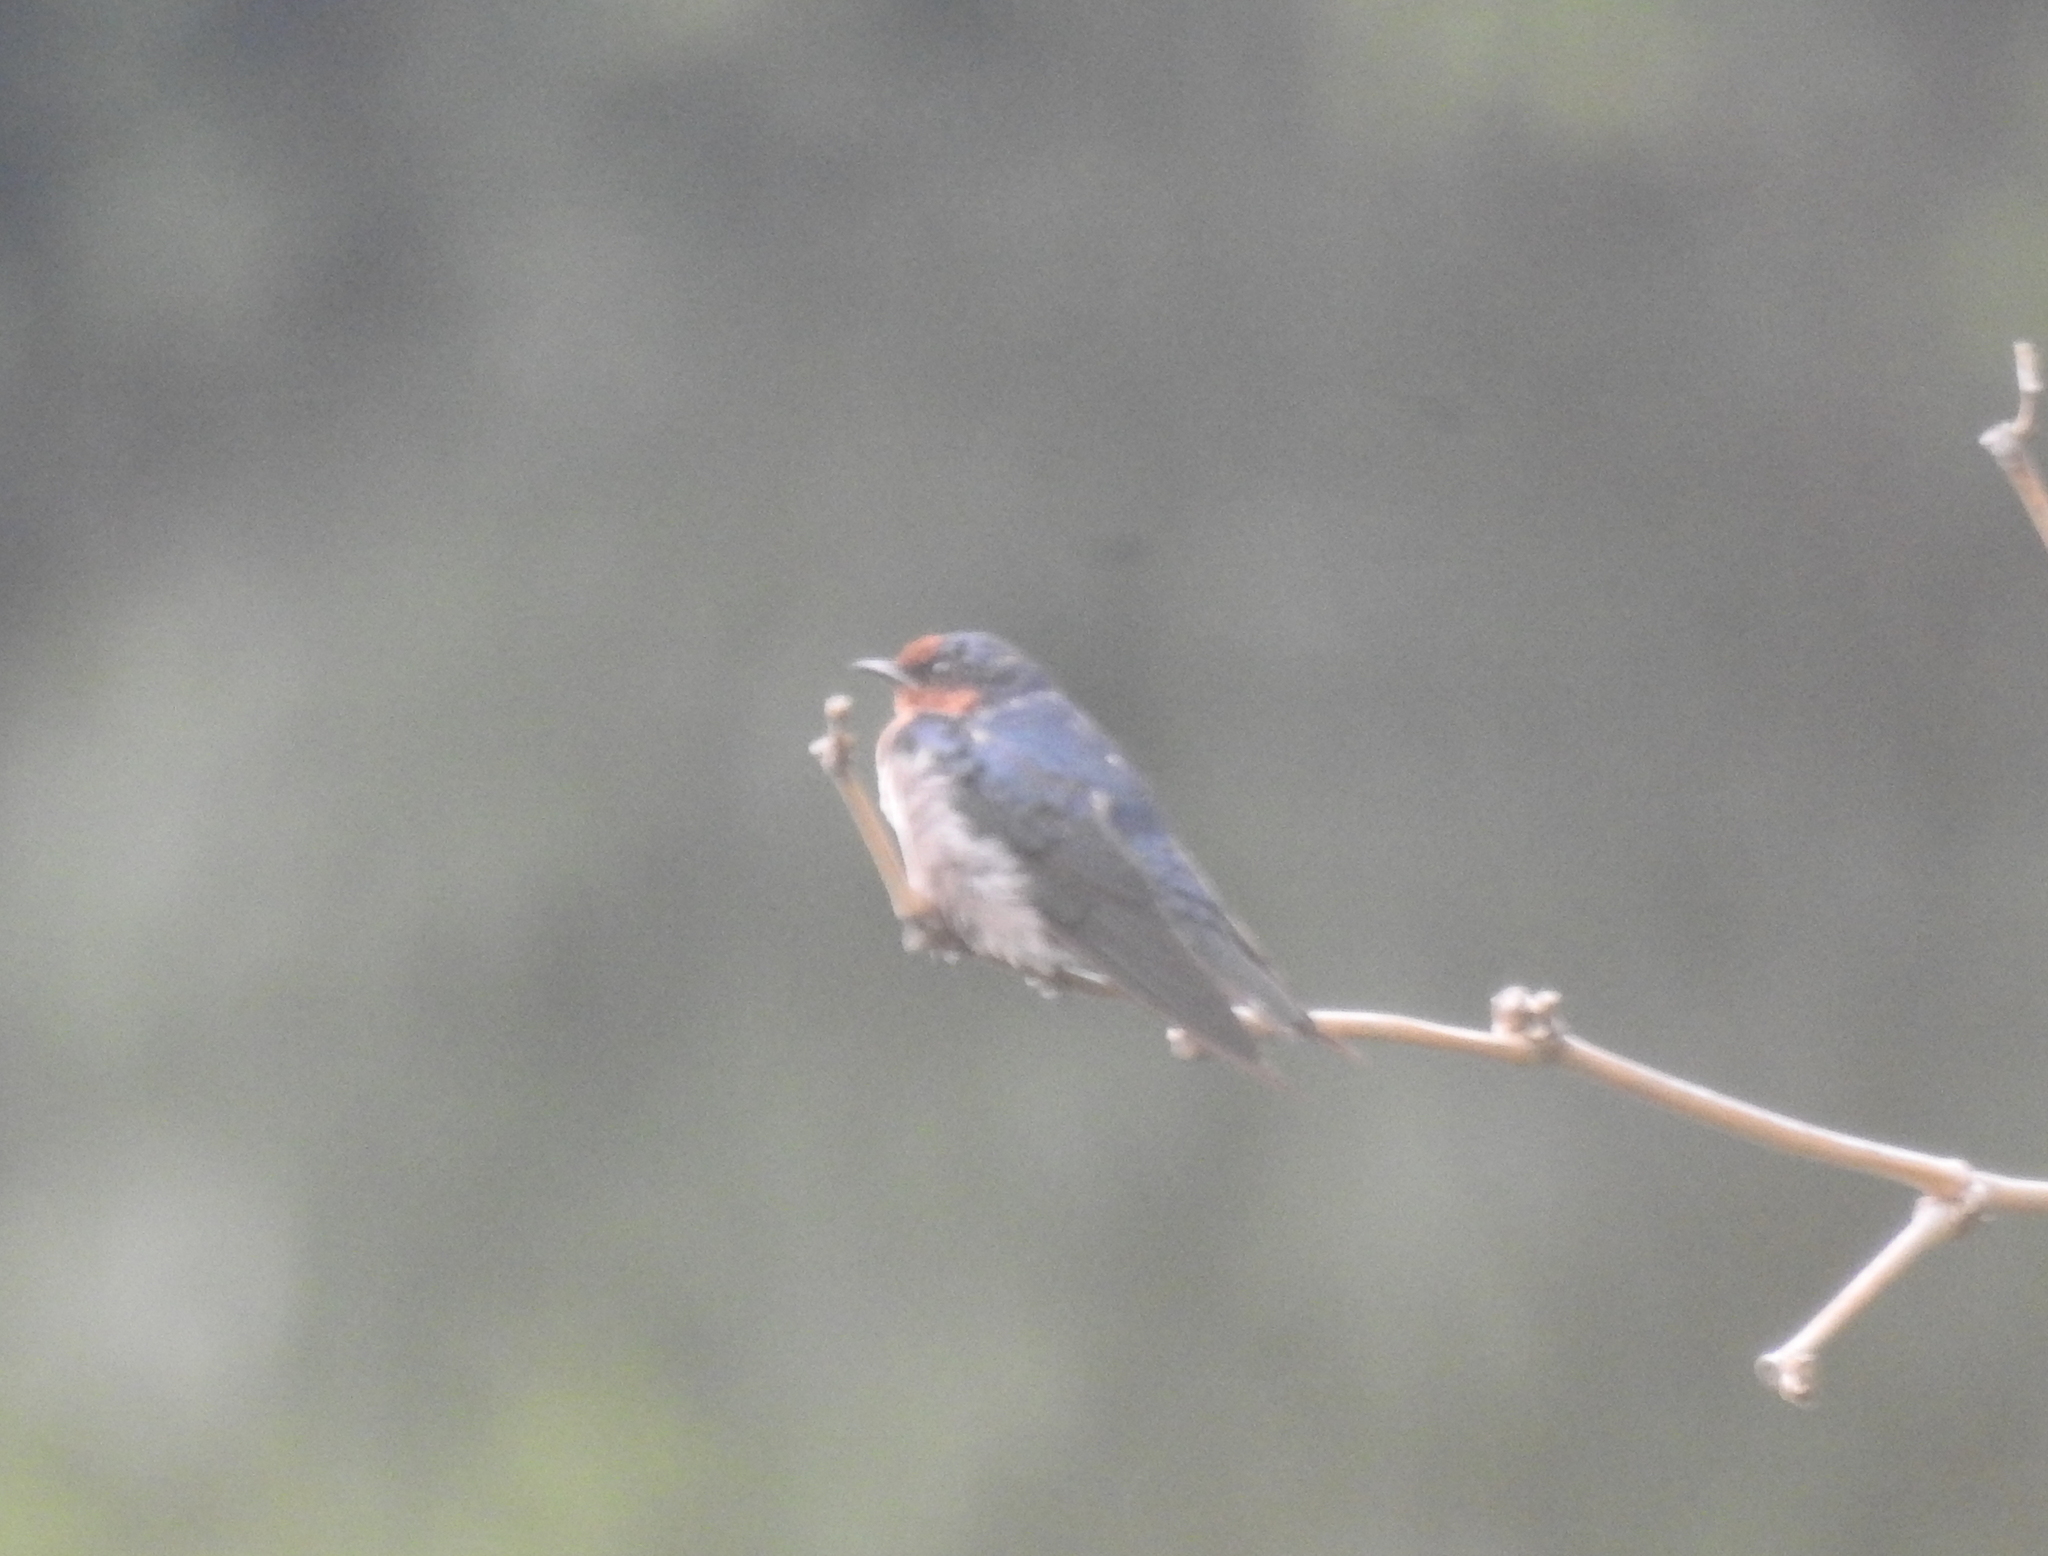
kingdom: Animalia
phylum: Chordata
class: Aves
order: Passeriformes
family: Hirundinidae
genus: Hirundo
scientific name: Hirundo tahitica
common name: Pacific swallow
